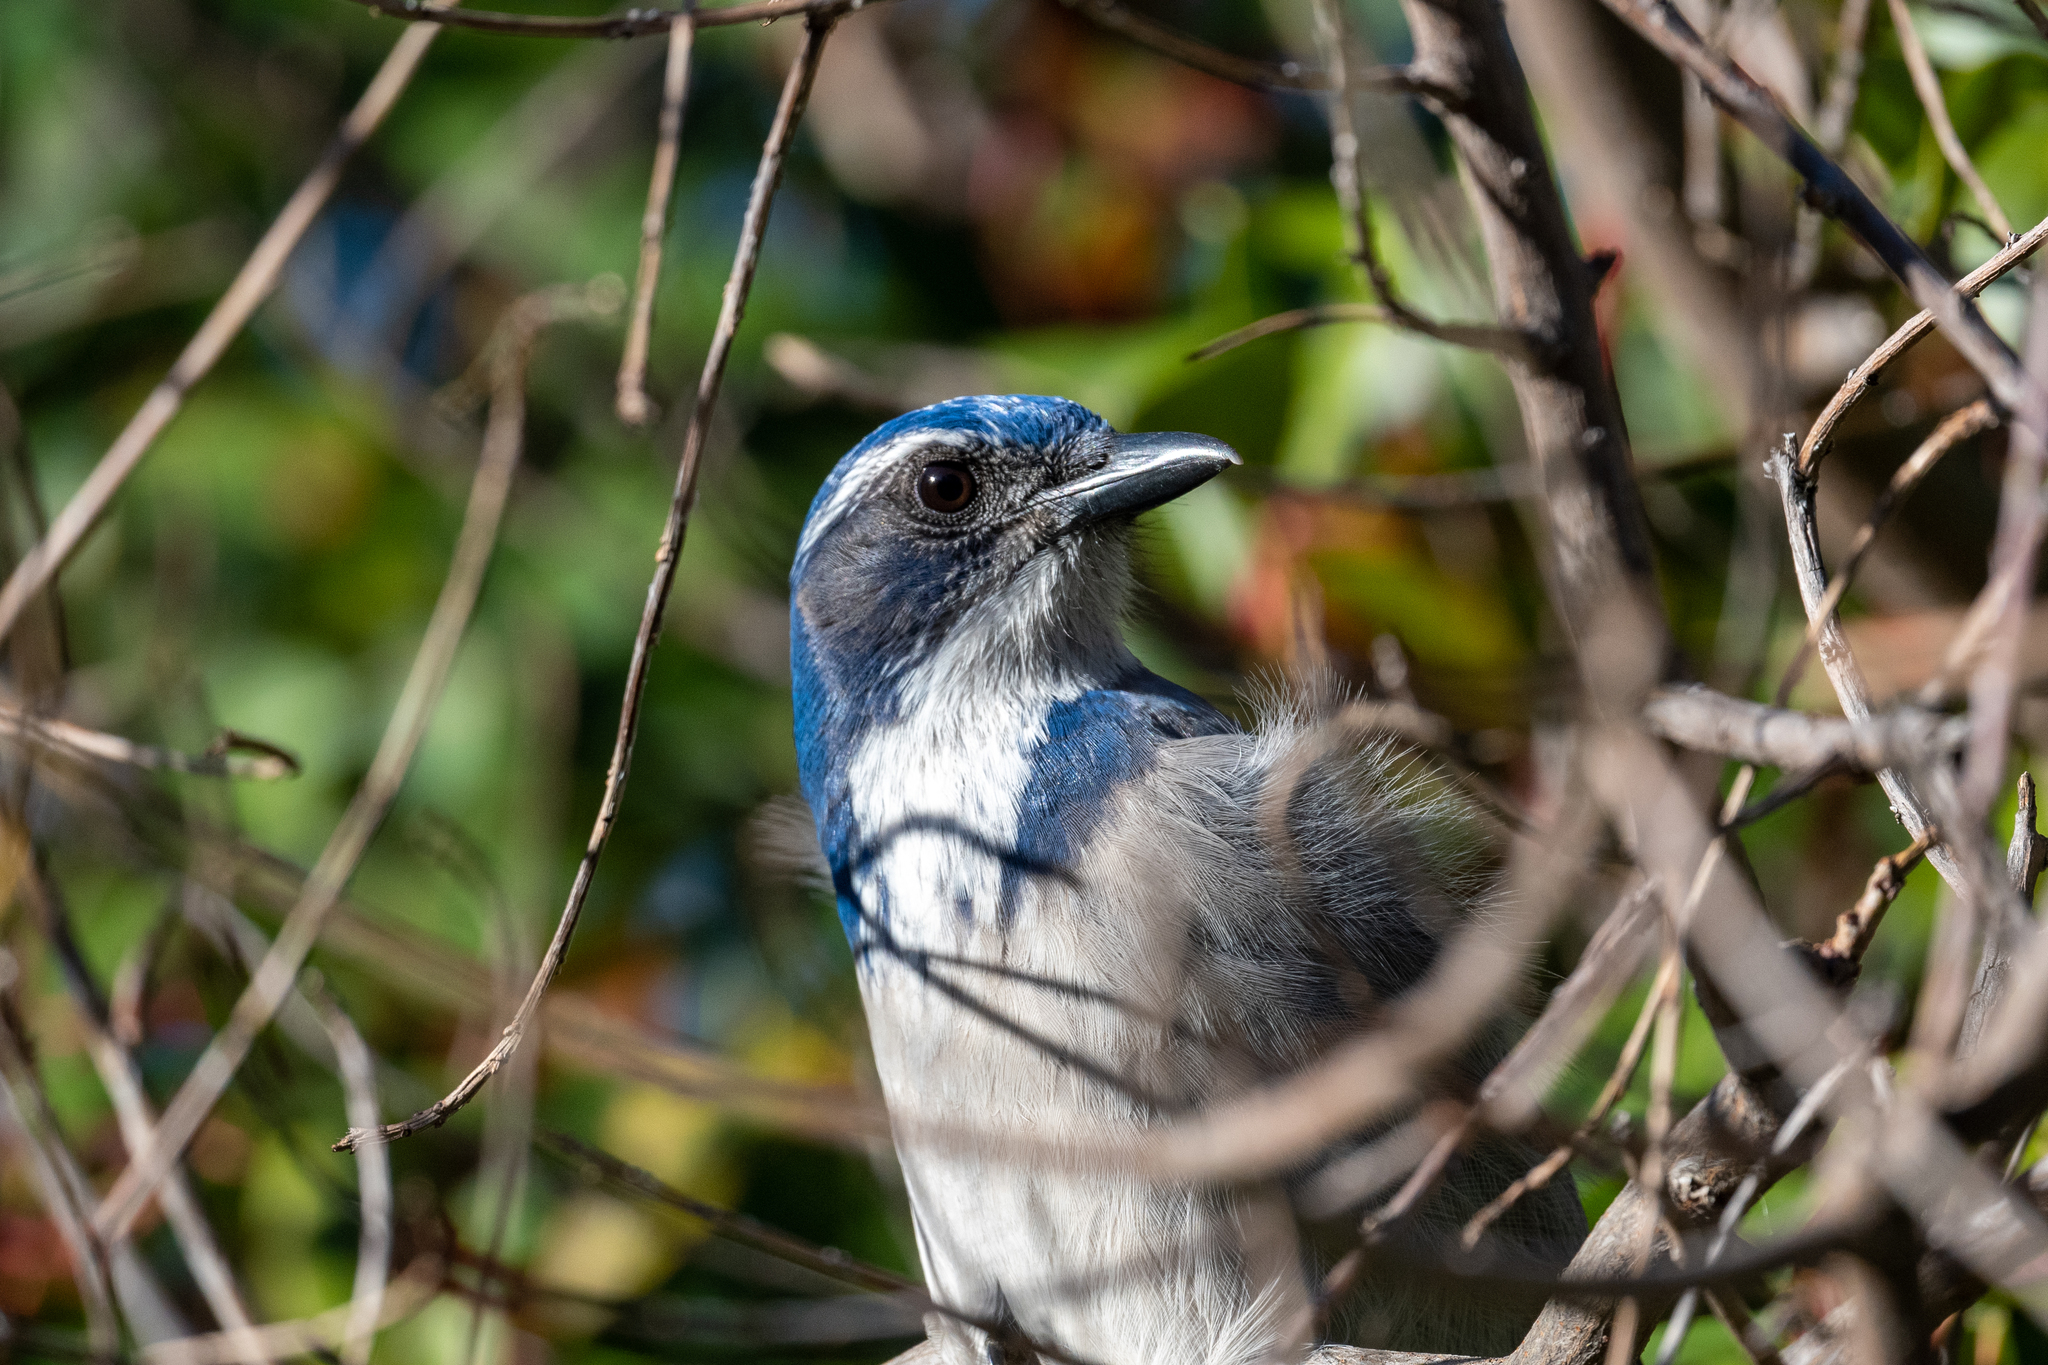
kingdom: Animalia
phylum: Chordata
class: Aves
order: Passeriformes
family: Corvidae
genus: Aphelocoma
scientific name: Aphelocoma californica
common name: California scrub-jay
